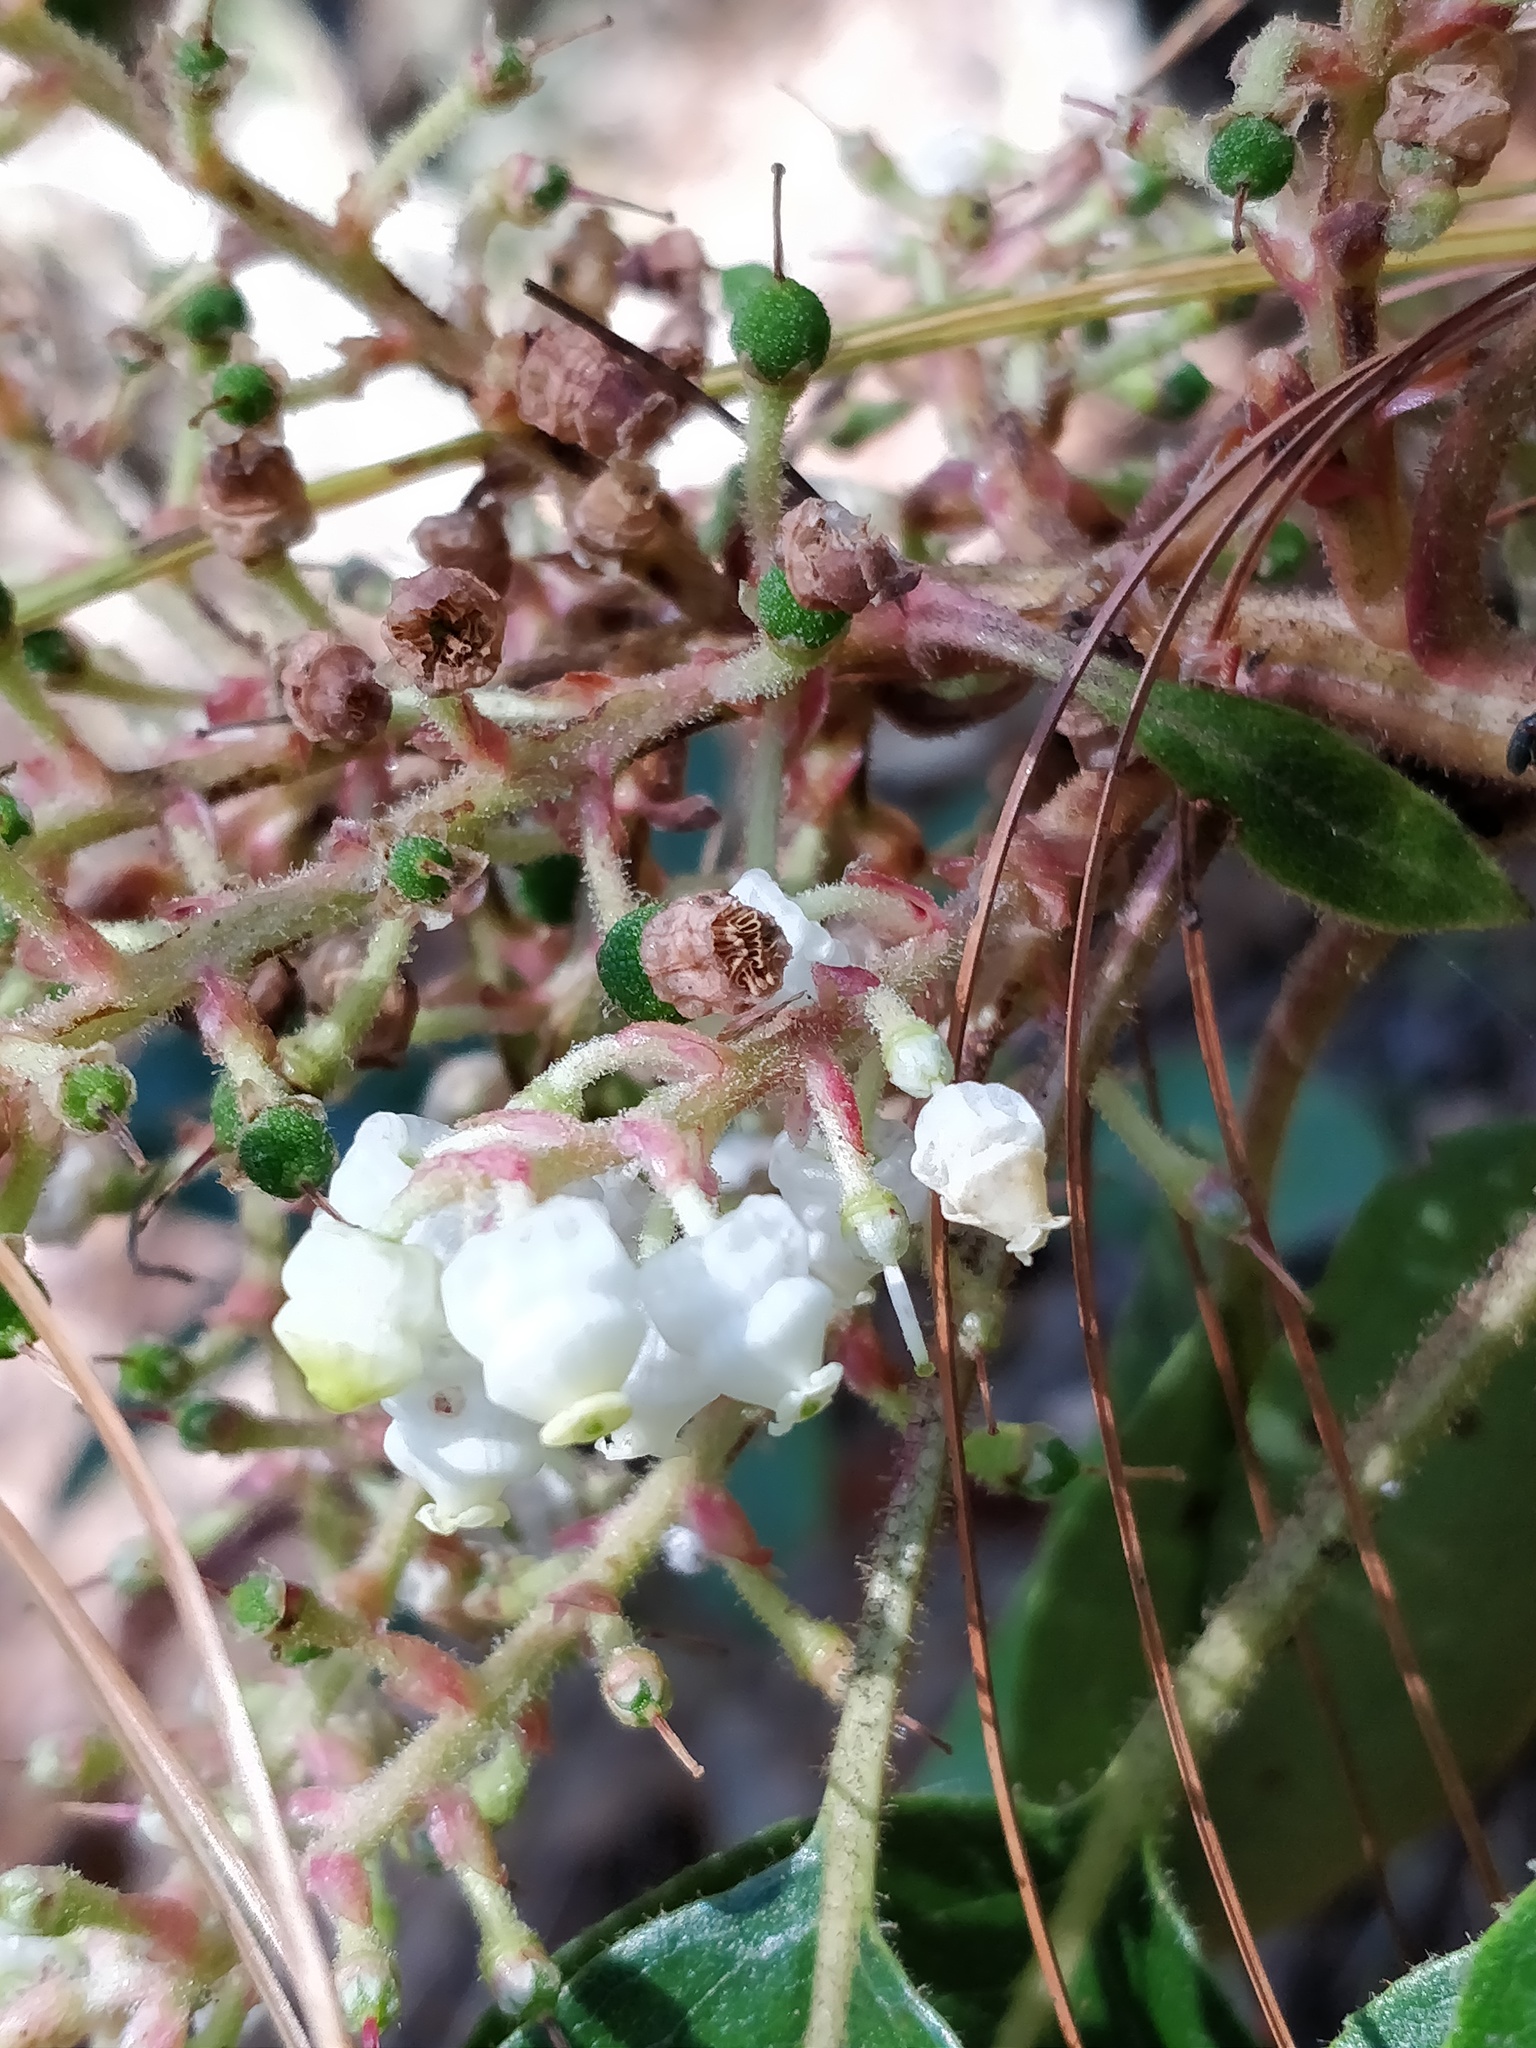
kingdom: Plantae
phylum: Tracheophyta
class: Magnoliopsida
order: Ericales
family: Ericaceae
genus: Arbutus
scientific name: Arbutus xalapensis
